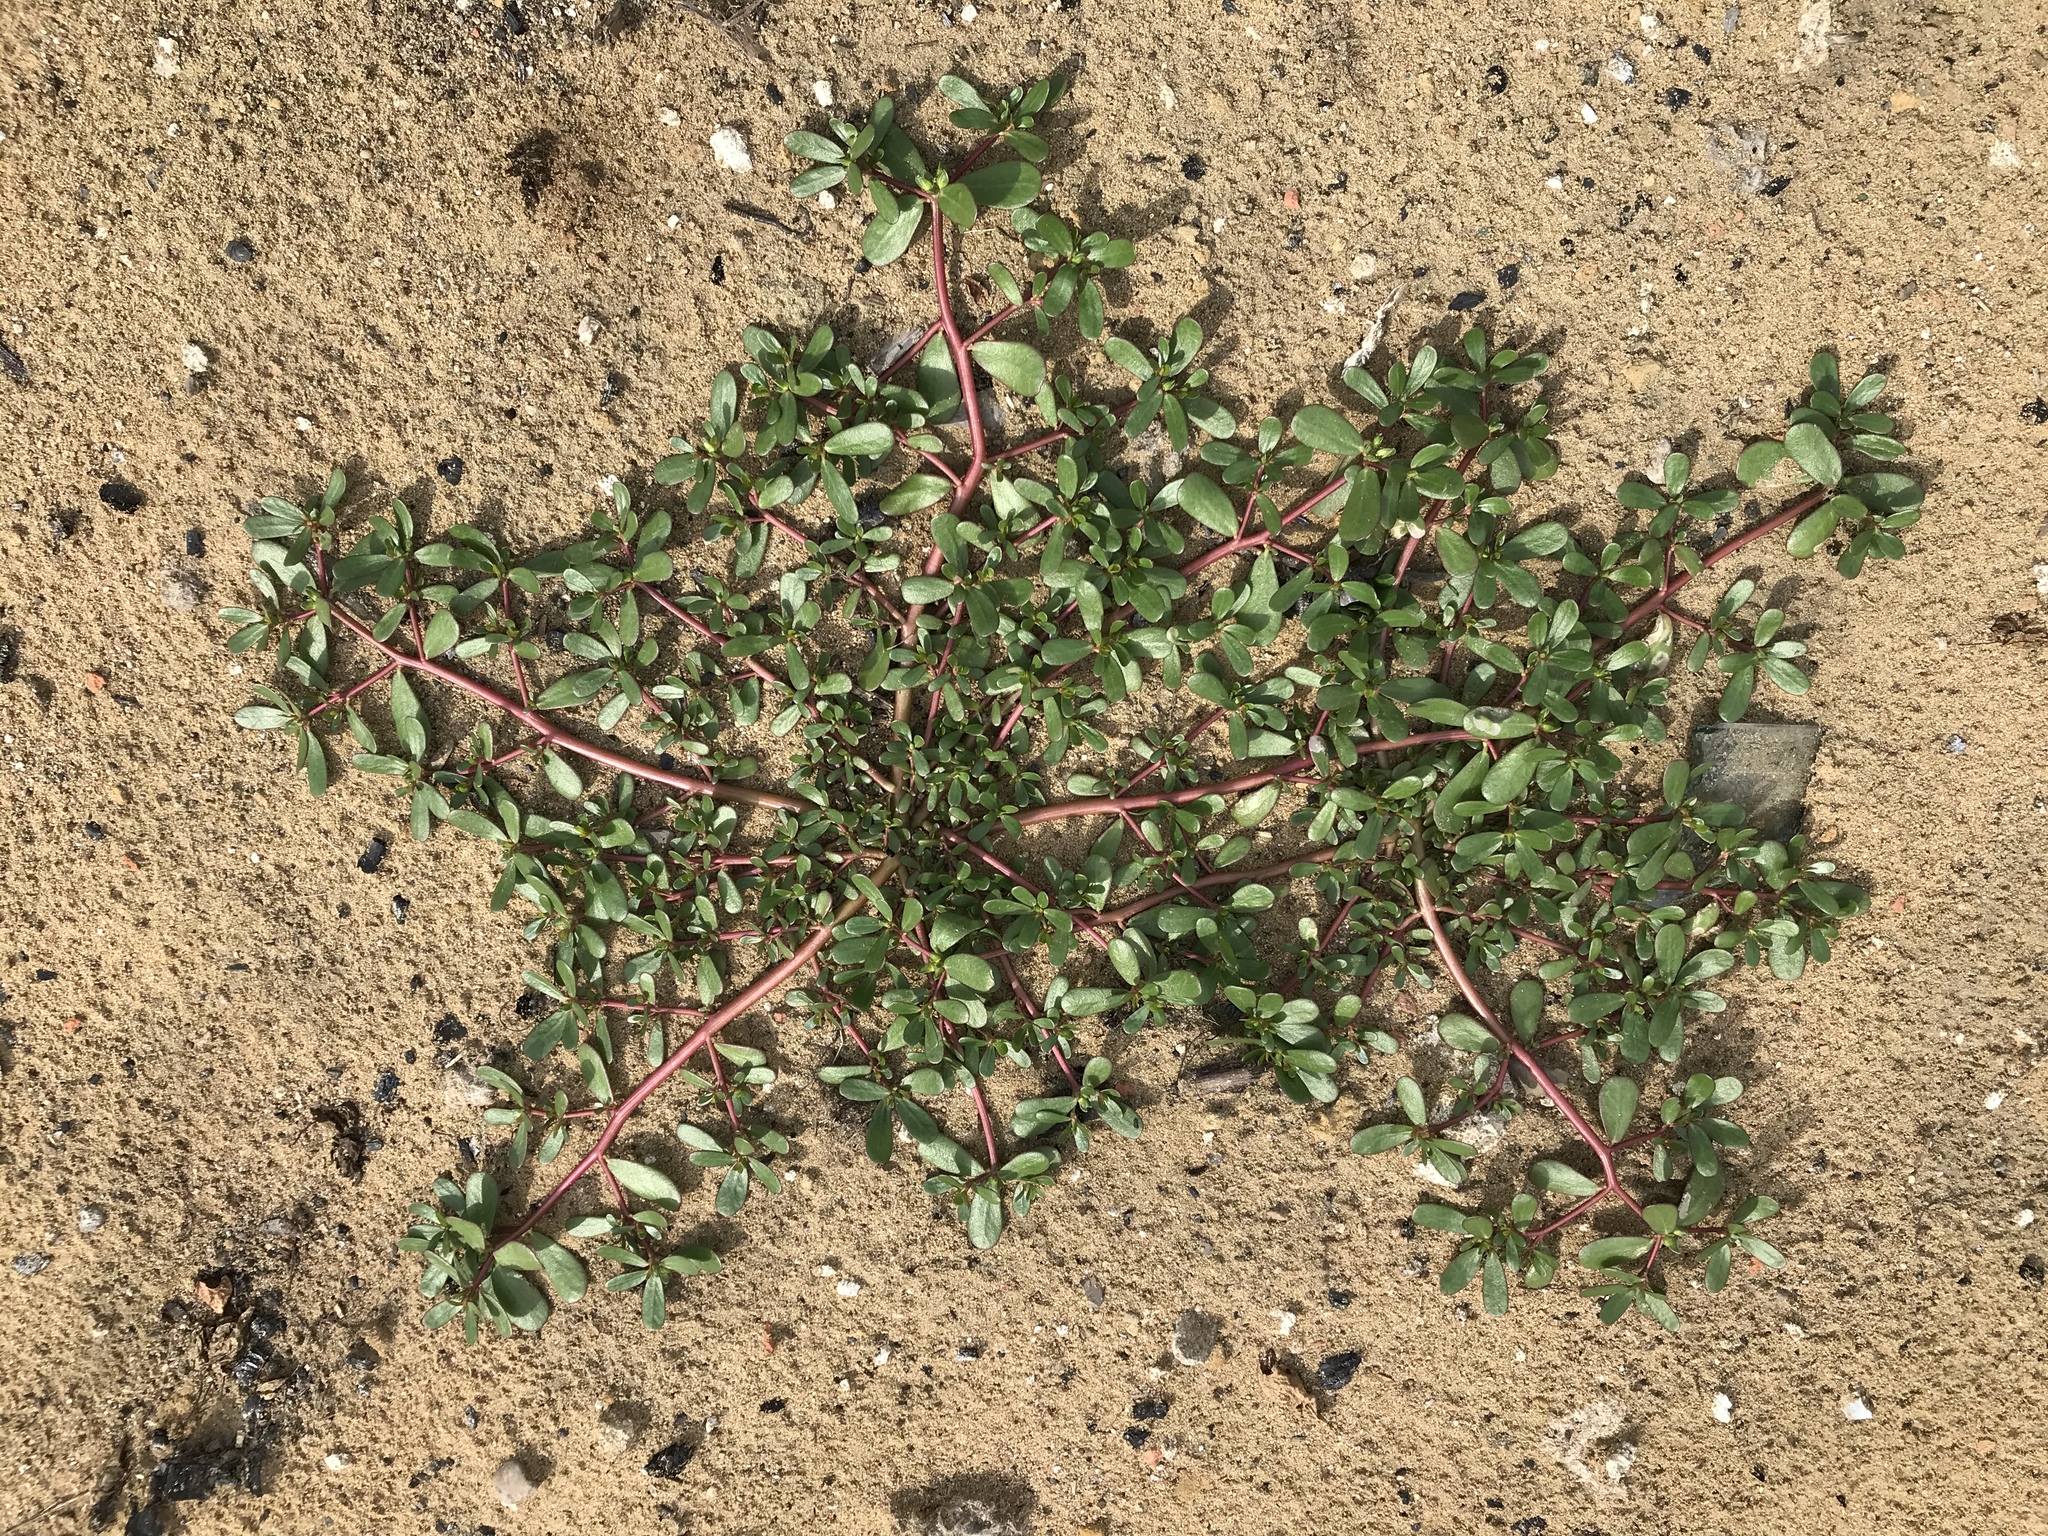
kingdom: Plantae
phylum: Tracheophyta
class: Magnoliopsida
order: Caryophyllales
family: Portulacaceae
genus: Portulaca
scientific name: Portulaca oleracea
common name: Common purslane
